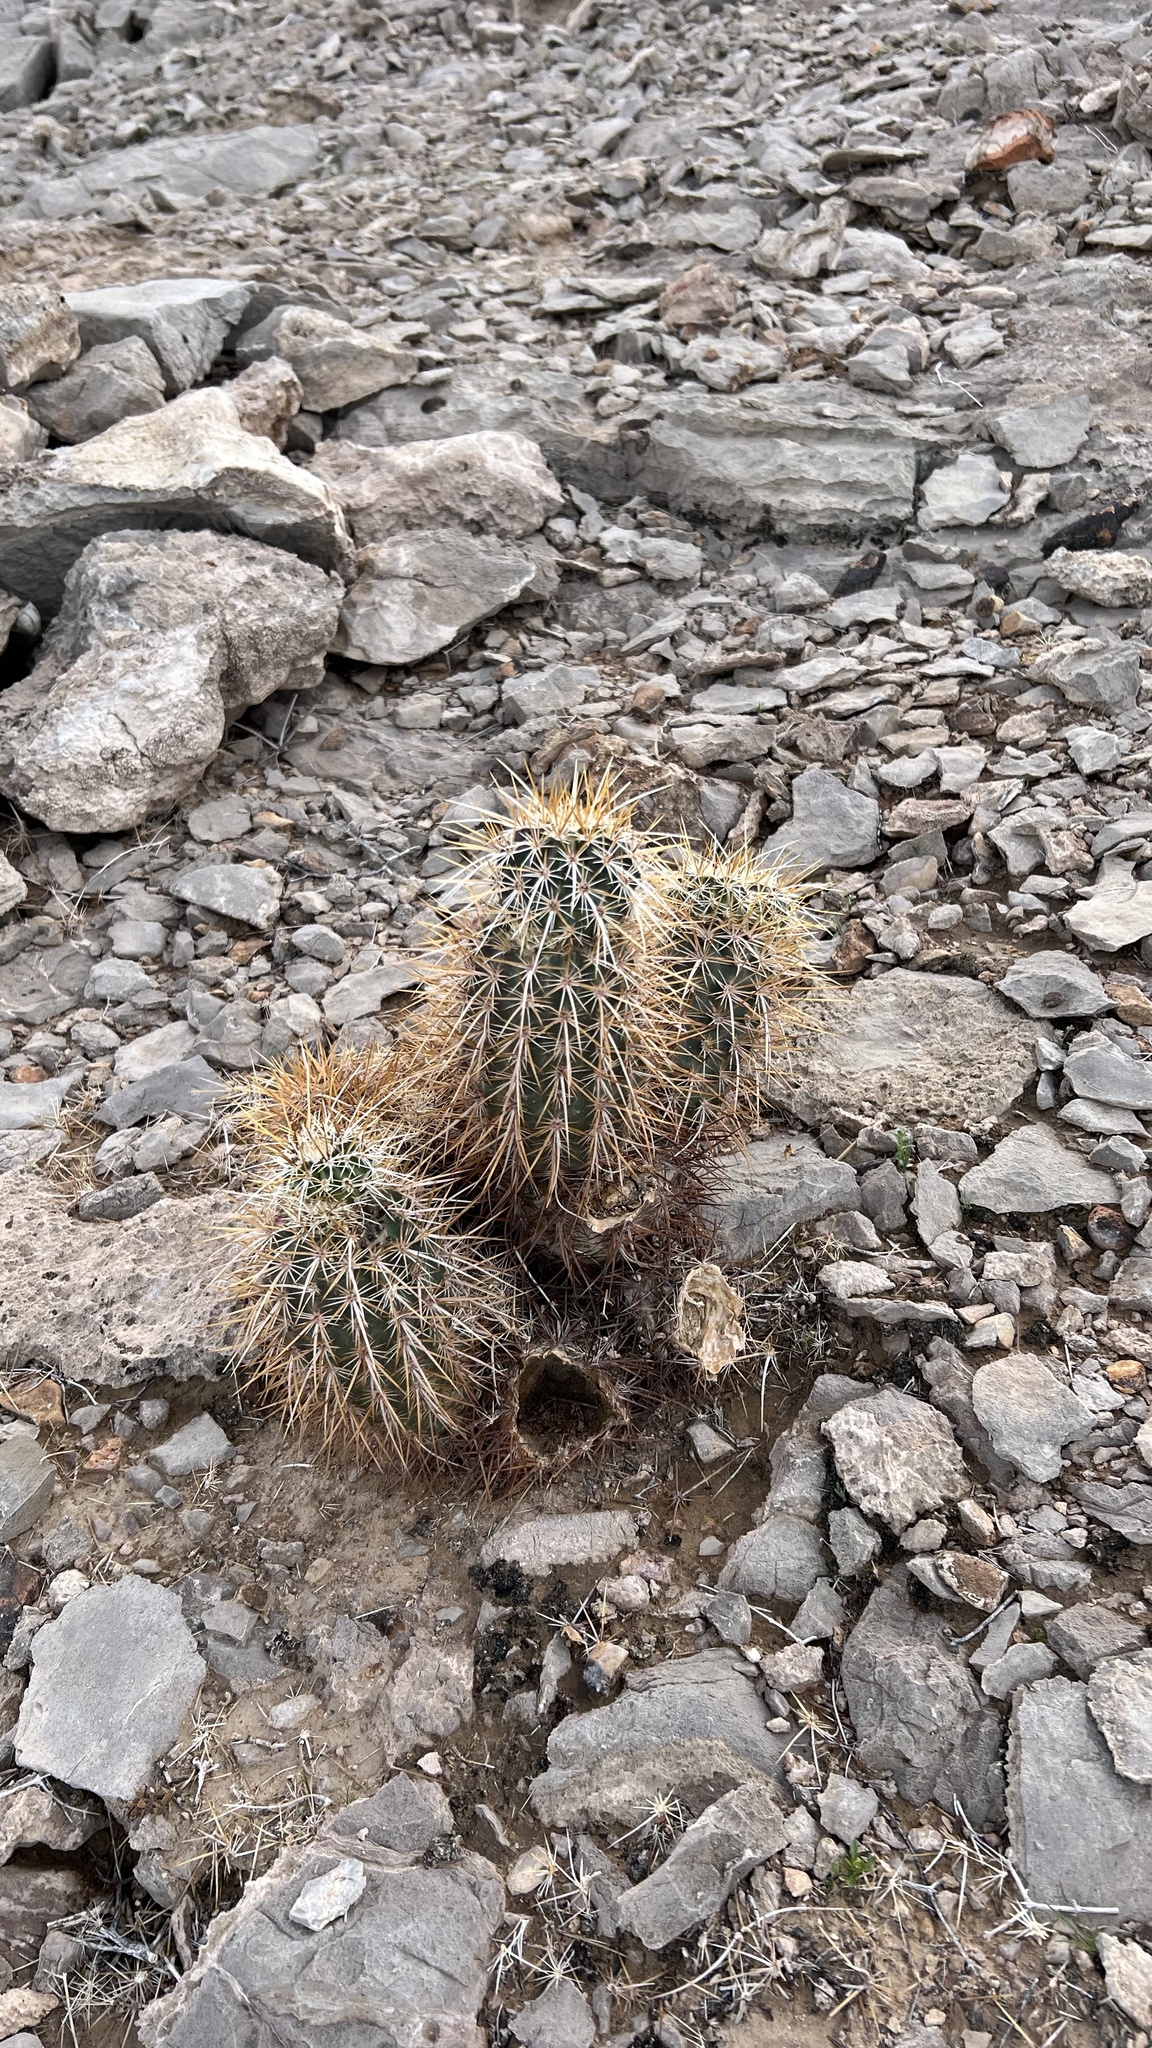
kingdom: Plantae
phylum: Tracheophyta
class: Magnoliopsida
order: Caryophyllales
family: Cactaceae
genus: Echinocereus
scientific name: Echinocereus engelmannii
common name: Engelmann's hedgehog cactus
